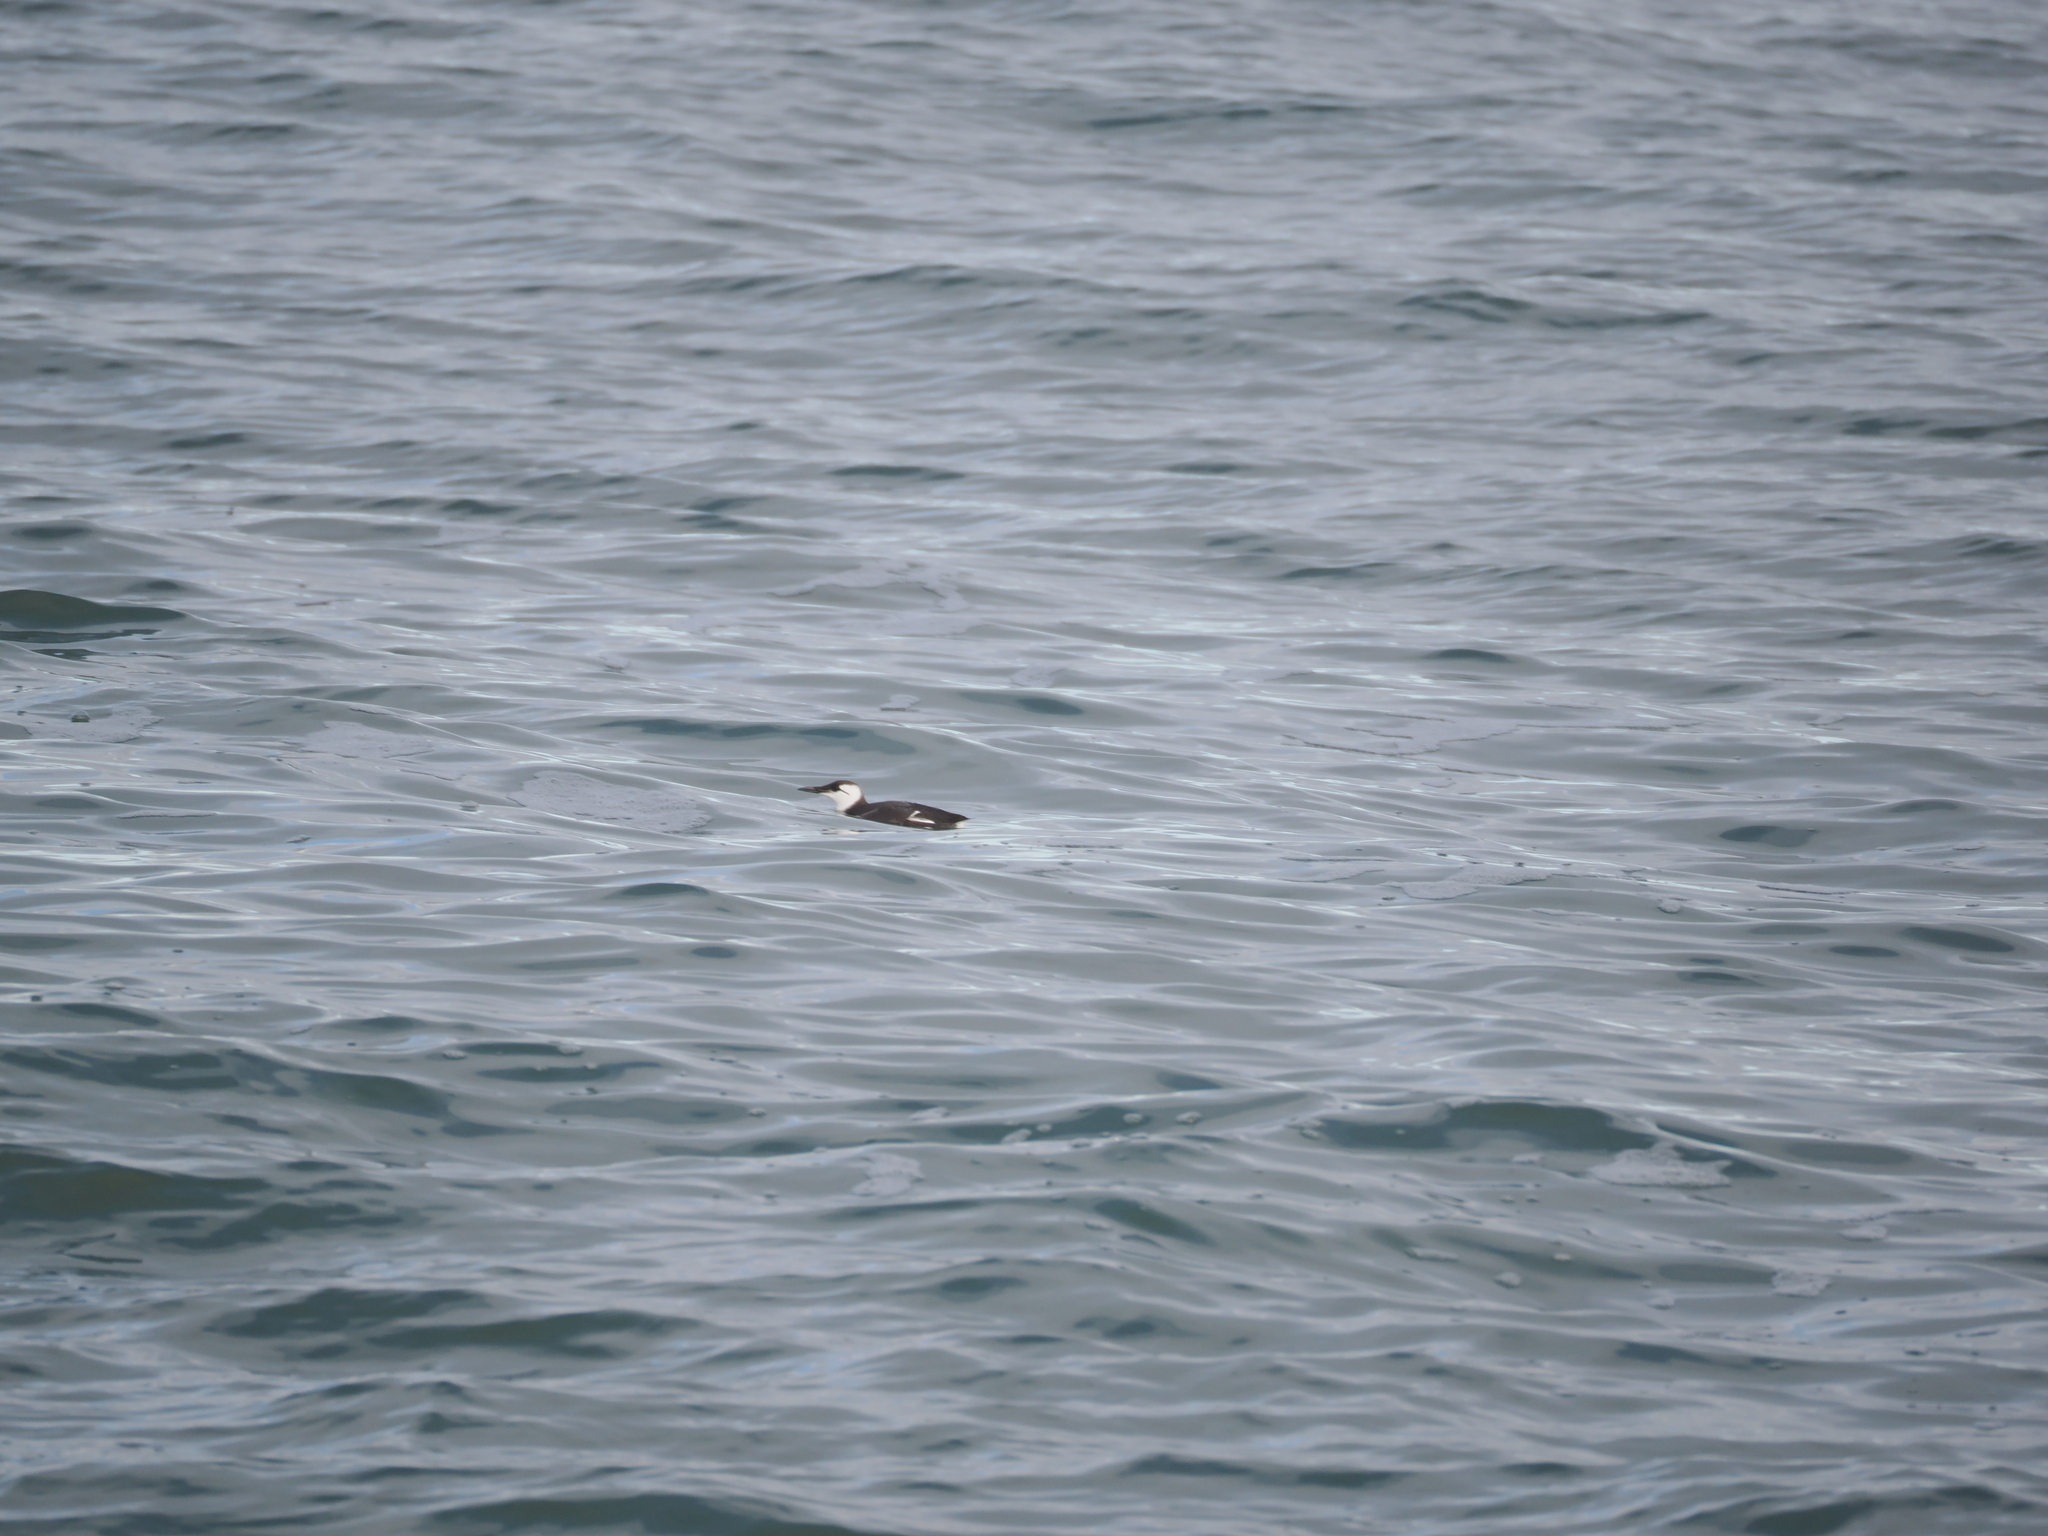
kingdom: Animalia
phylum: Chordata
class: Aves
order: Charadriiformes
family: Alcidae
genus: Uria
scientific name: Uria aalge
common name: Common murre
